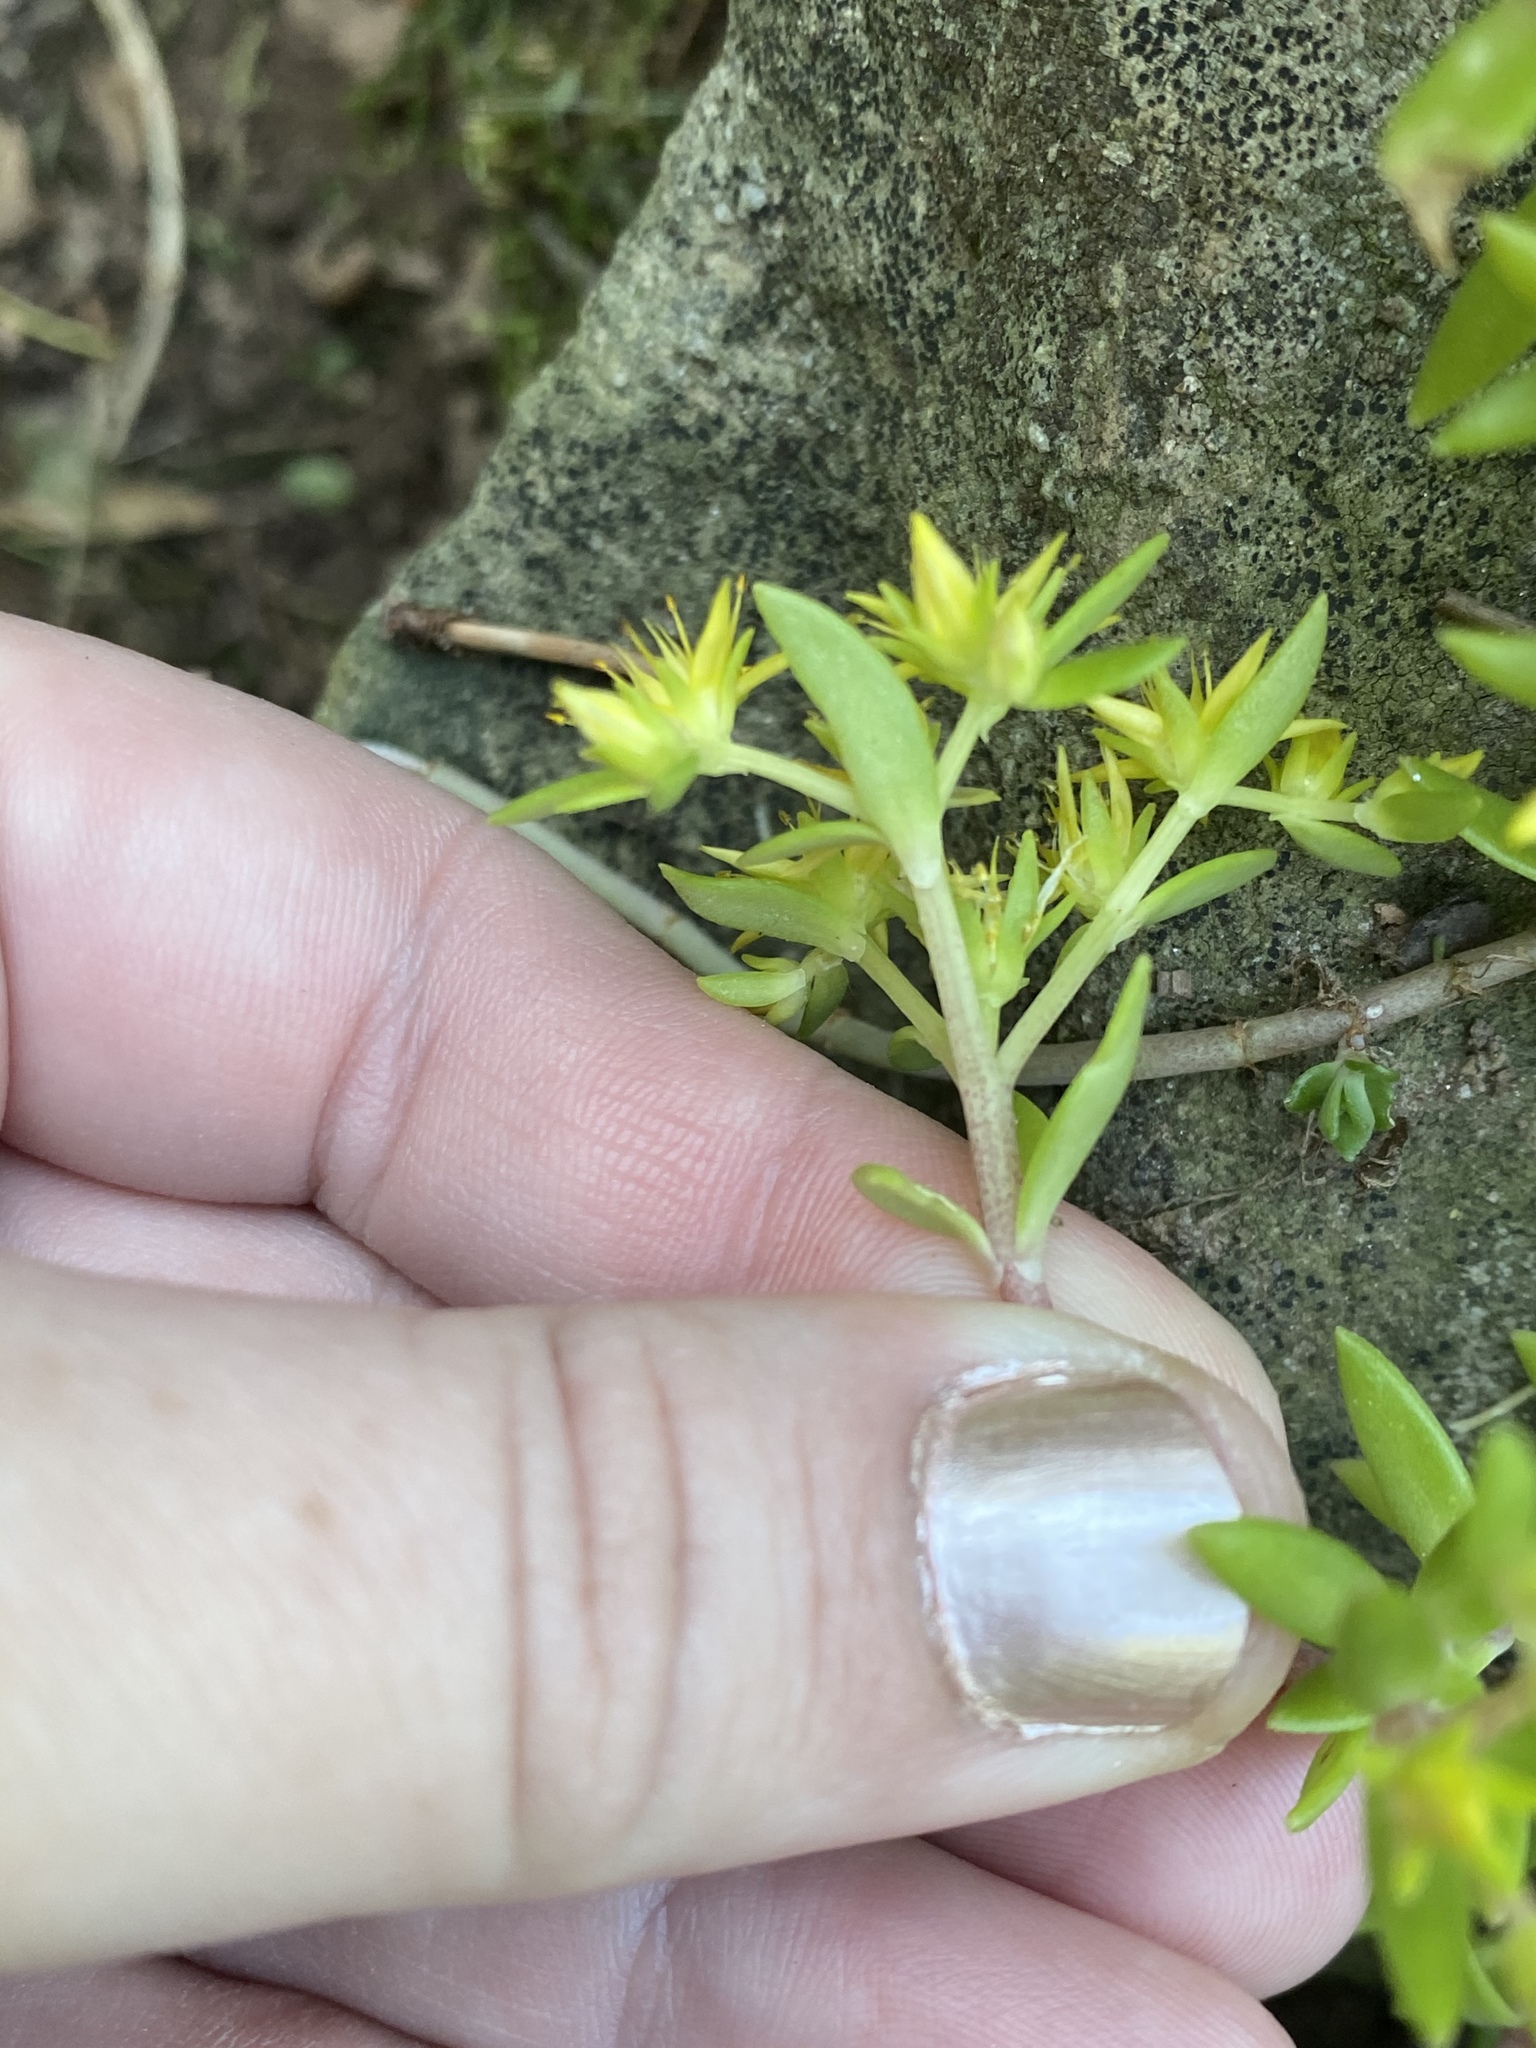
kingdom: Plantae
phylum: Tracheophyta
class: Magnoliopsida
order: Saxifragales
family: Crassulaceae
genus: Sedum
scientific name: Sedum sarmentosum
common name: Stringy stonecrop
